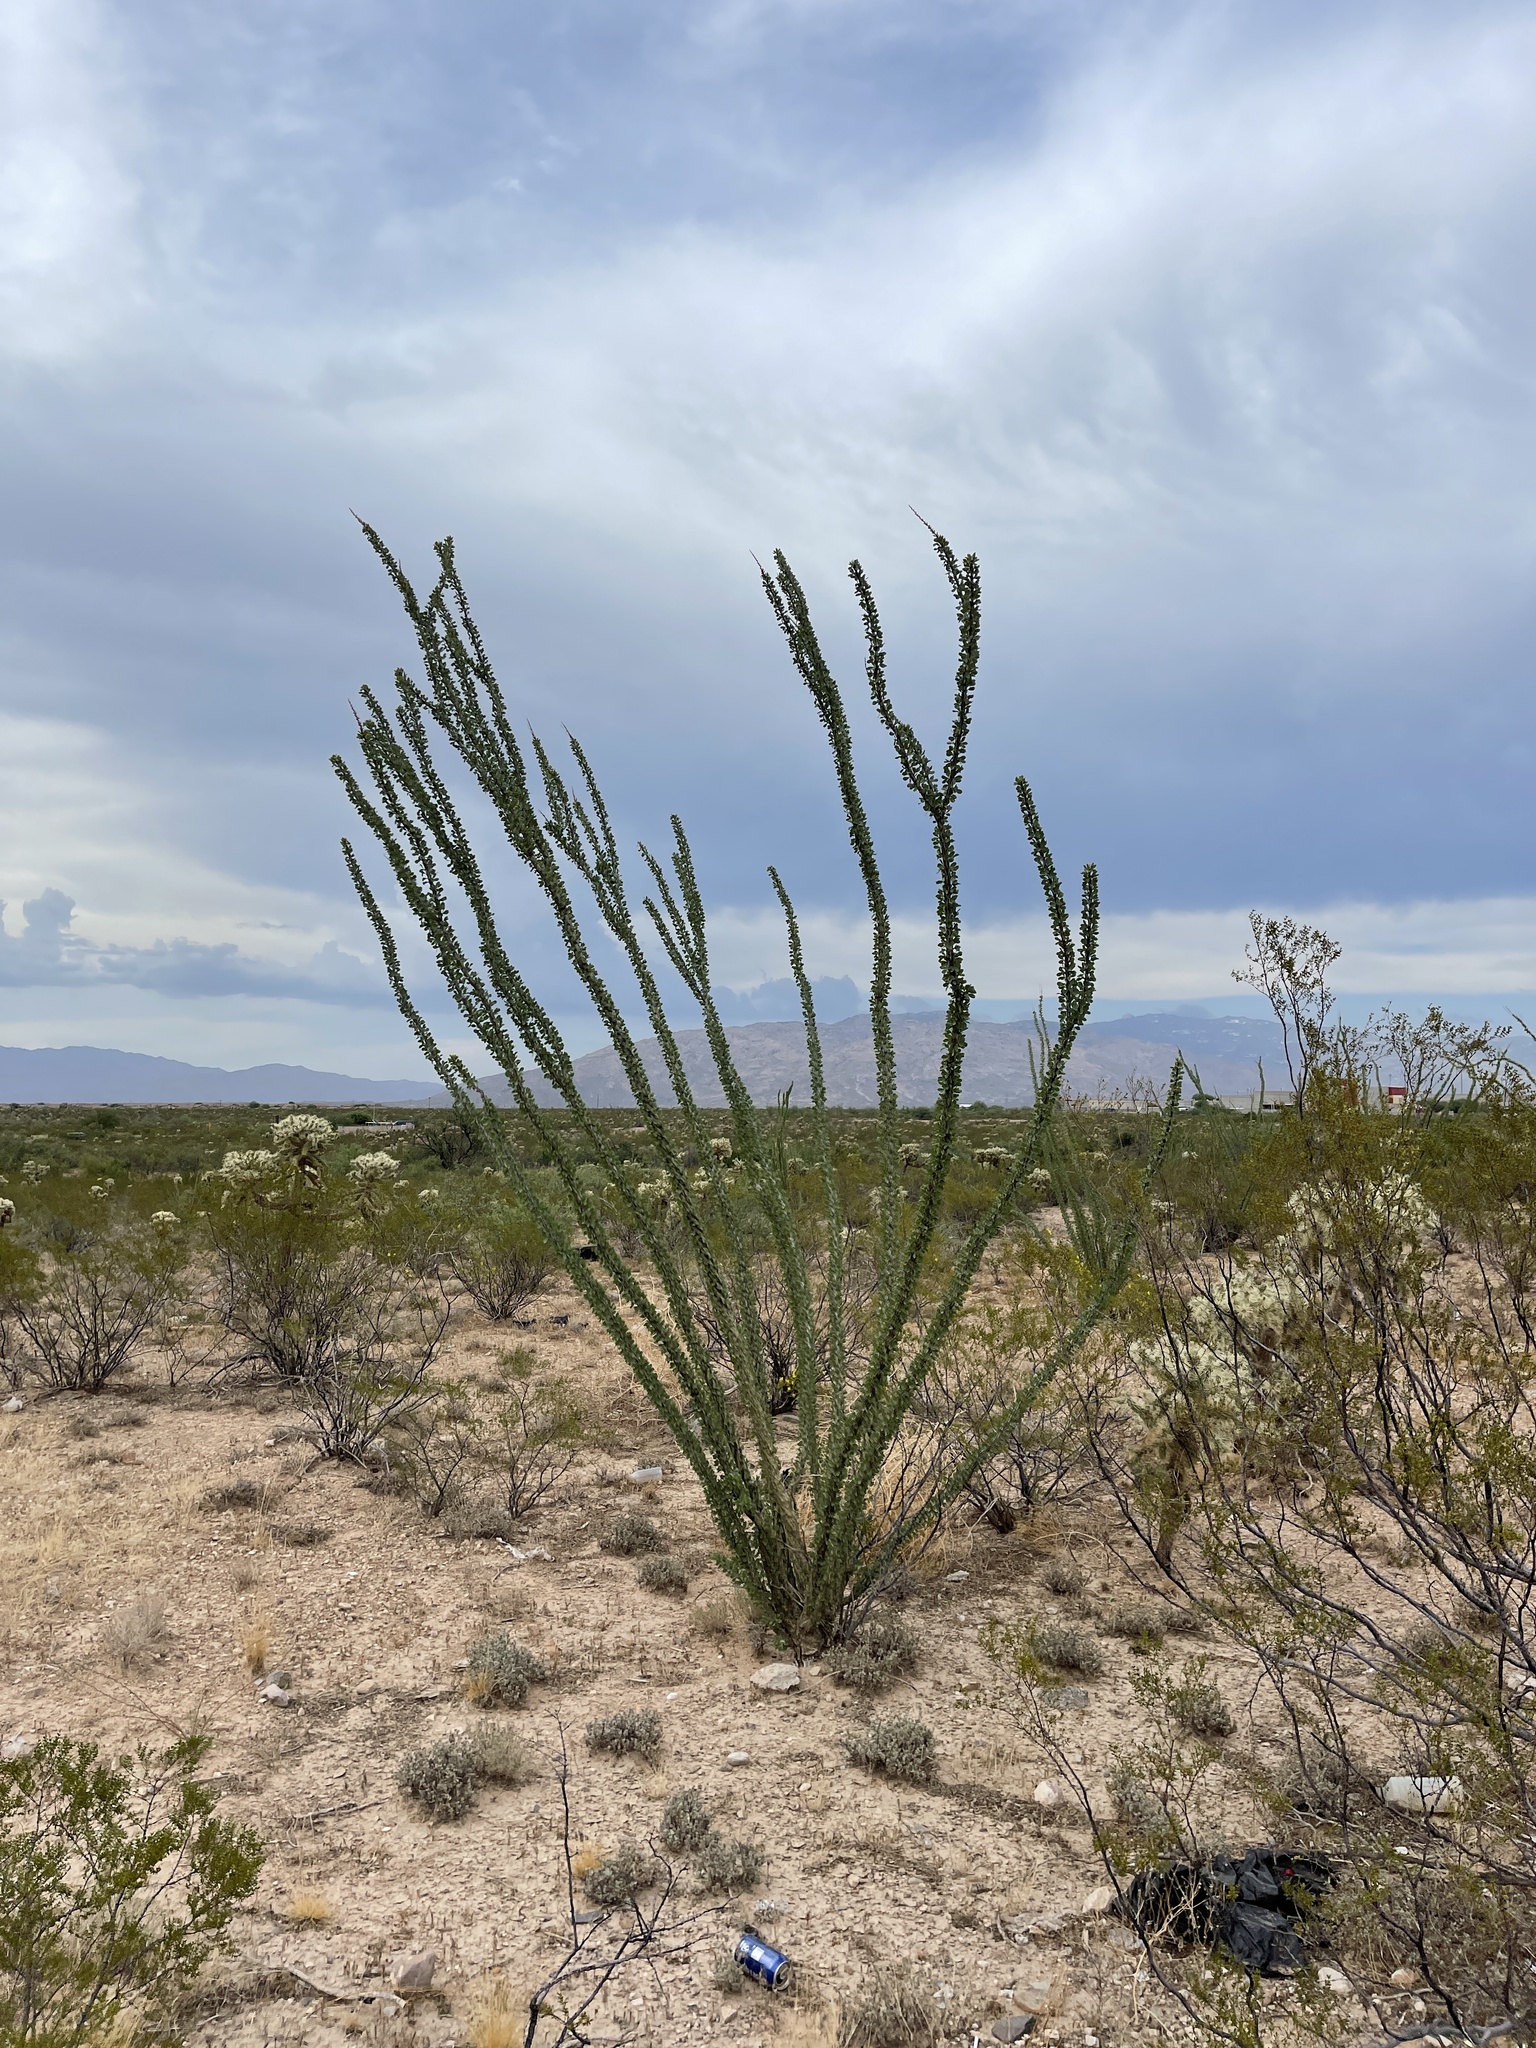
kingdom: Plantae
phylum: Tracheophyta
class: Magnoliopsida
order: Ericales
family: Fouquieriaceae
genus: Fouquieria
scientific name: Fouquieria splendens
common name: Vine-cactus
